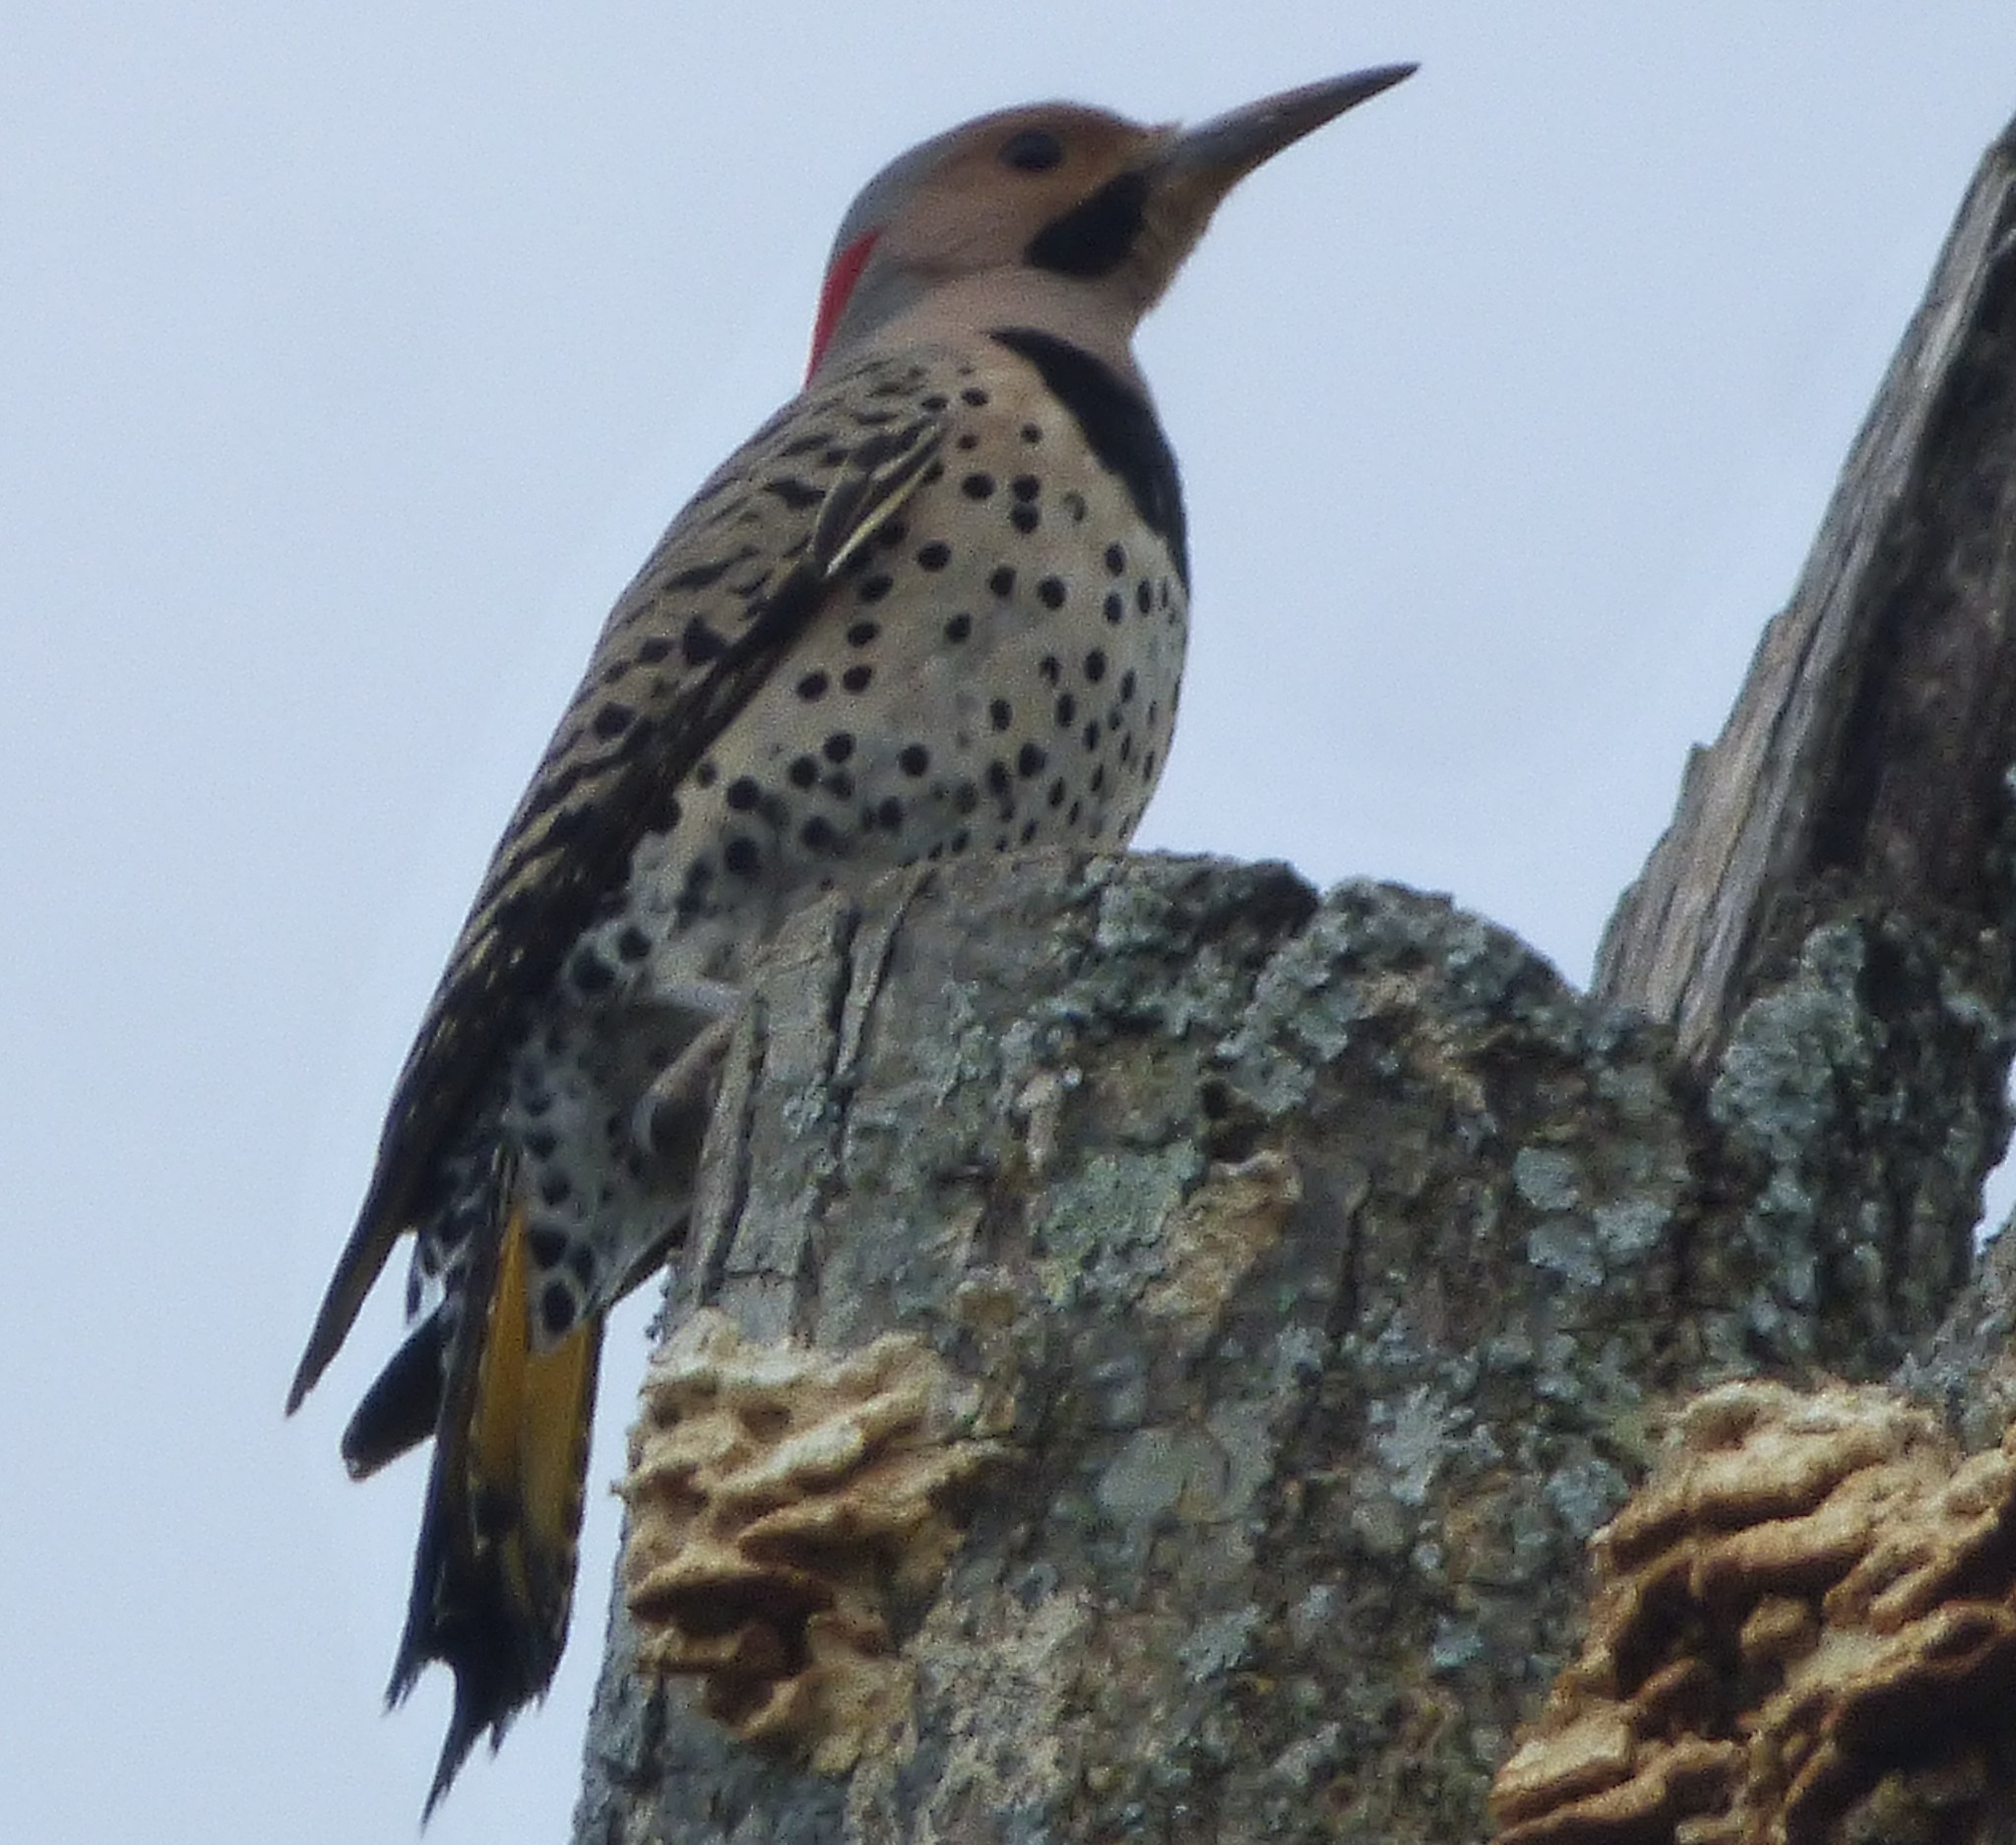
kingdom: Animalia
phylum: Chordata
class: Aves
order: Piciformes
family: Picidae
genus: Colaptes
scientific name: Colaptes auratus
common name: Northern flicker
